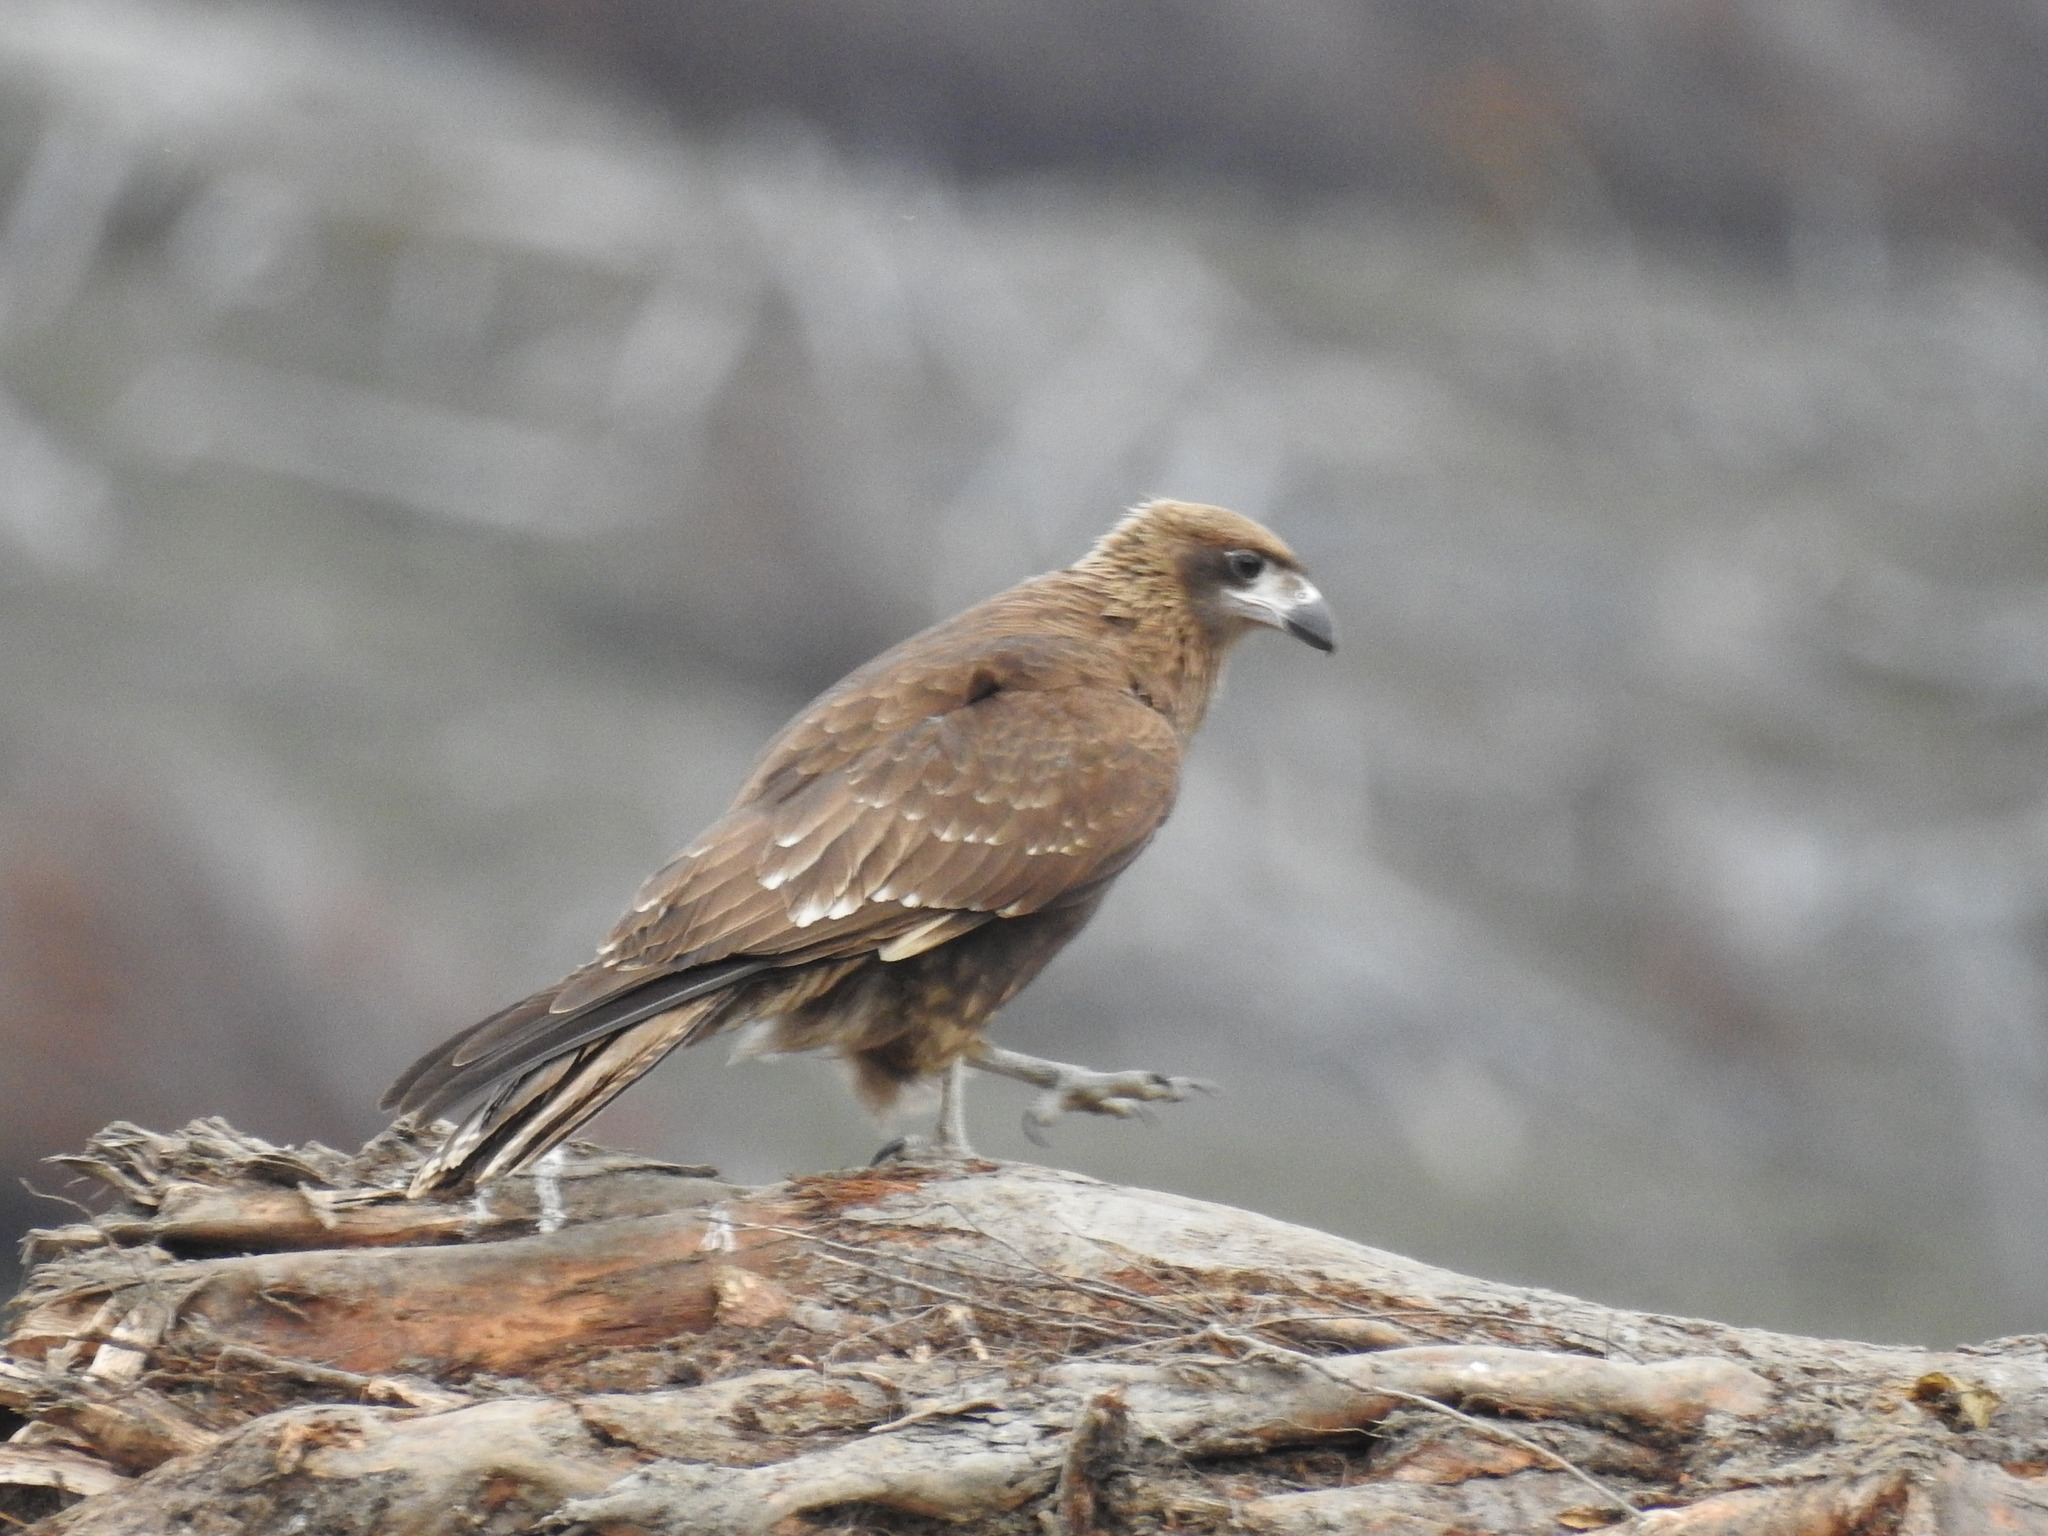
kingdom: Animalia
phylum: Chordata
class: Aves
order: Falconiformes
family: Falconidae
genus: Daptrius
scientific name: Daptrius
